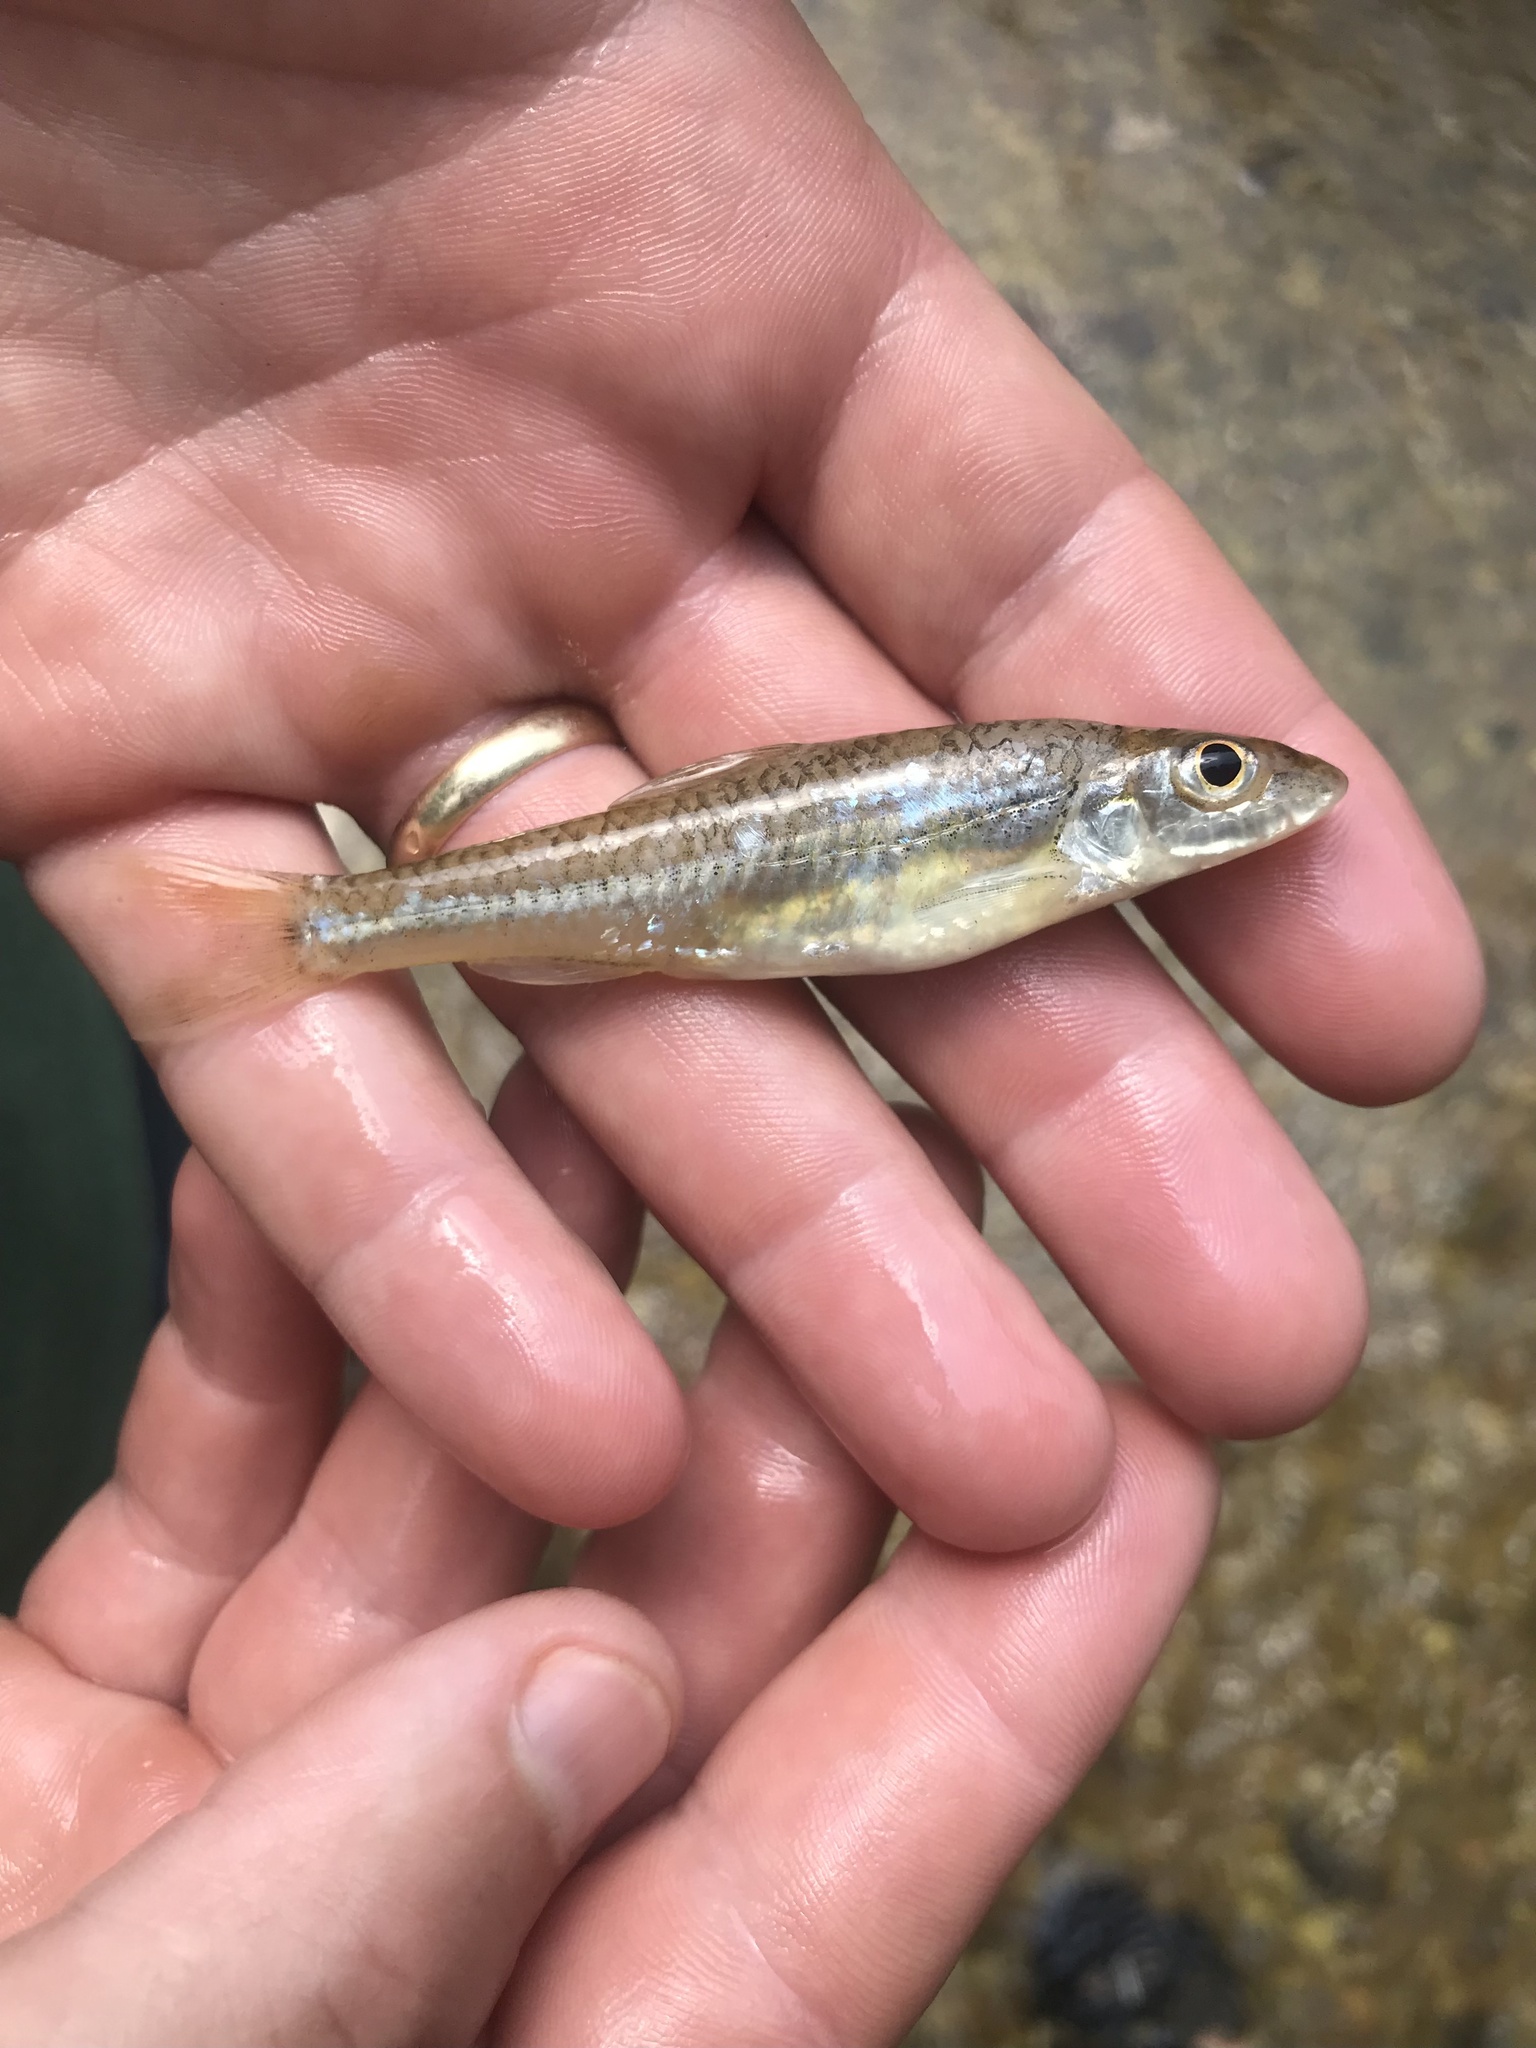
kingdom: Animalia
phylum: Chordata
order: Cypriniformes
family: Cyprinidae
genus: Ericymba
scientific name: Ericymba amplamala
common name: Longjaw minnow
